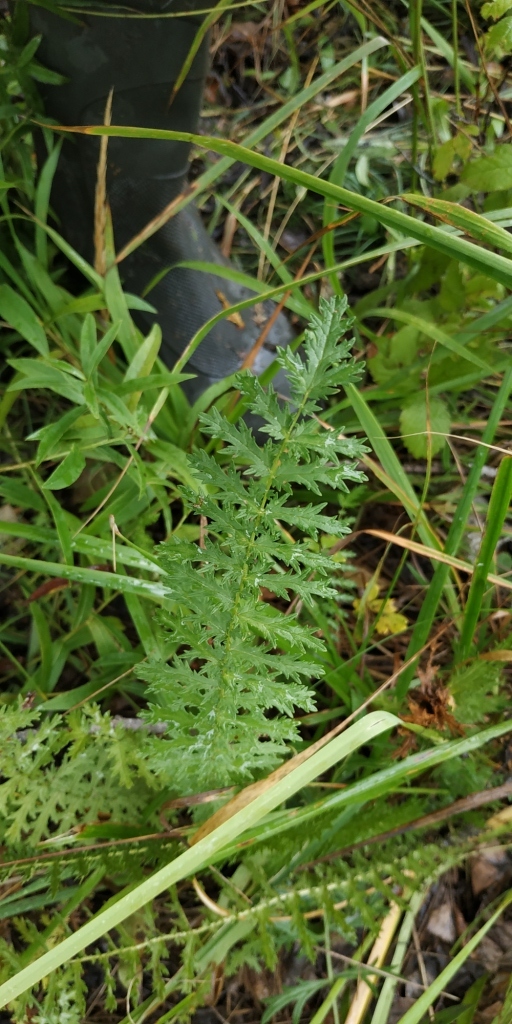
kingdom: Plantae
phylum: Tracheophyta
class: Magnoliopsida
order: Rosales
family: Rosaceae
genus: Filipendula
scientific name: Filipendula vulgaris
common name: Dropwort
